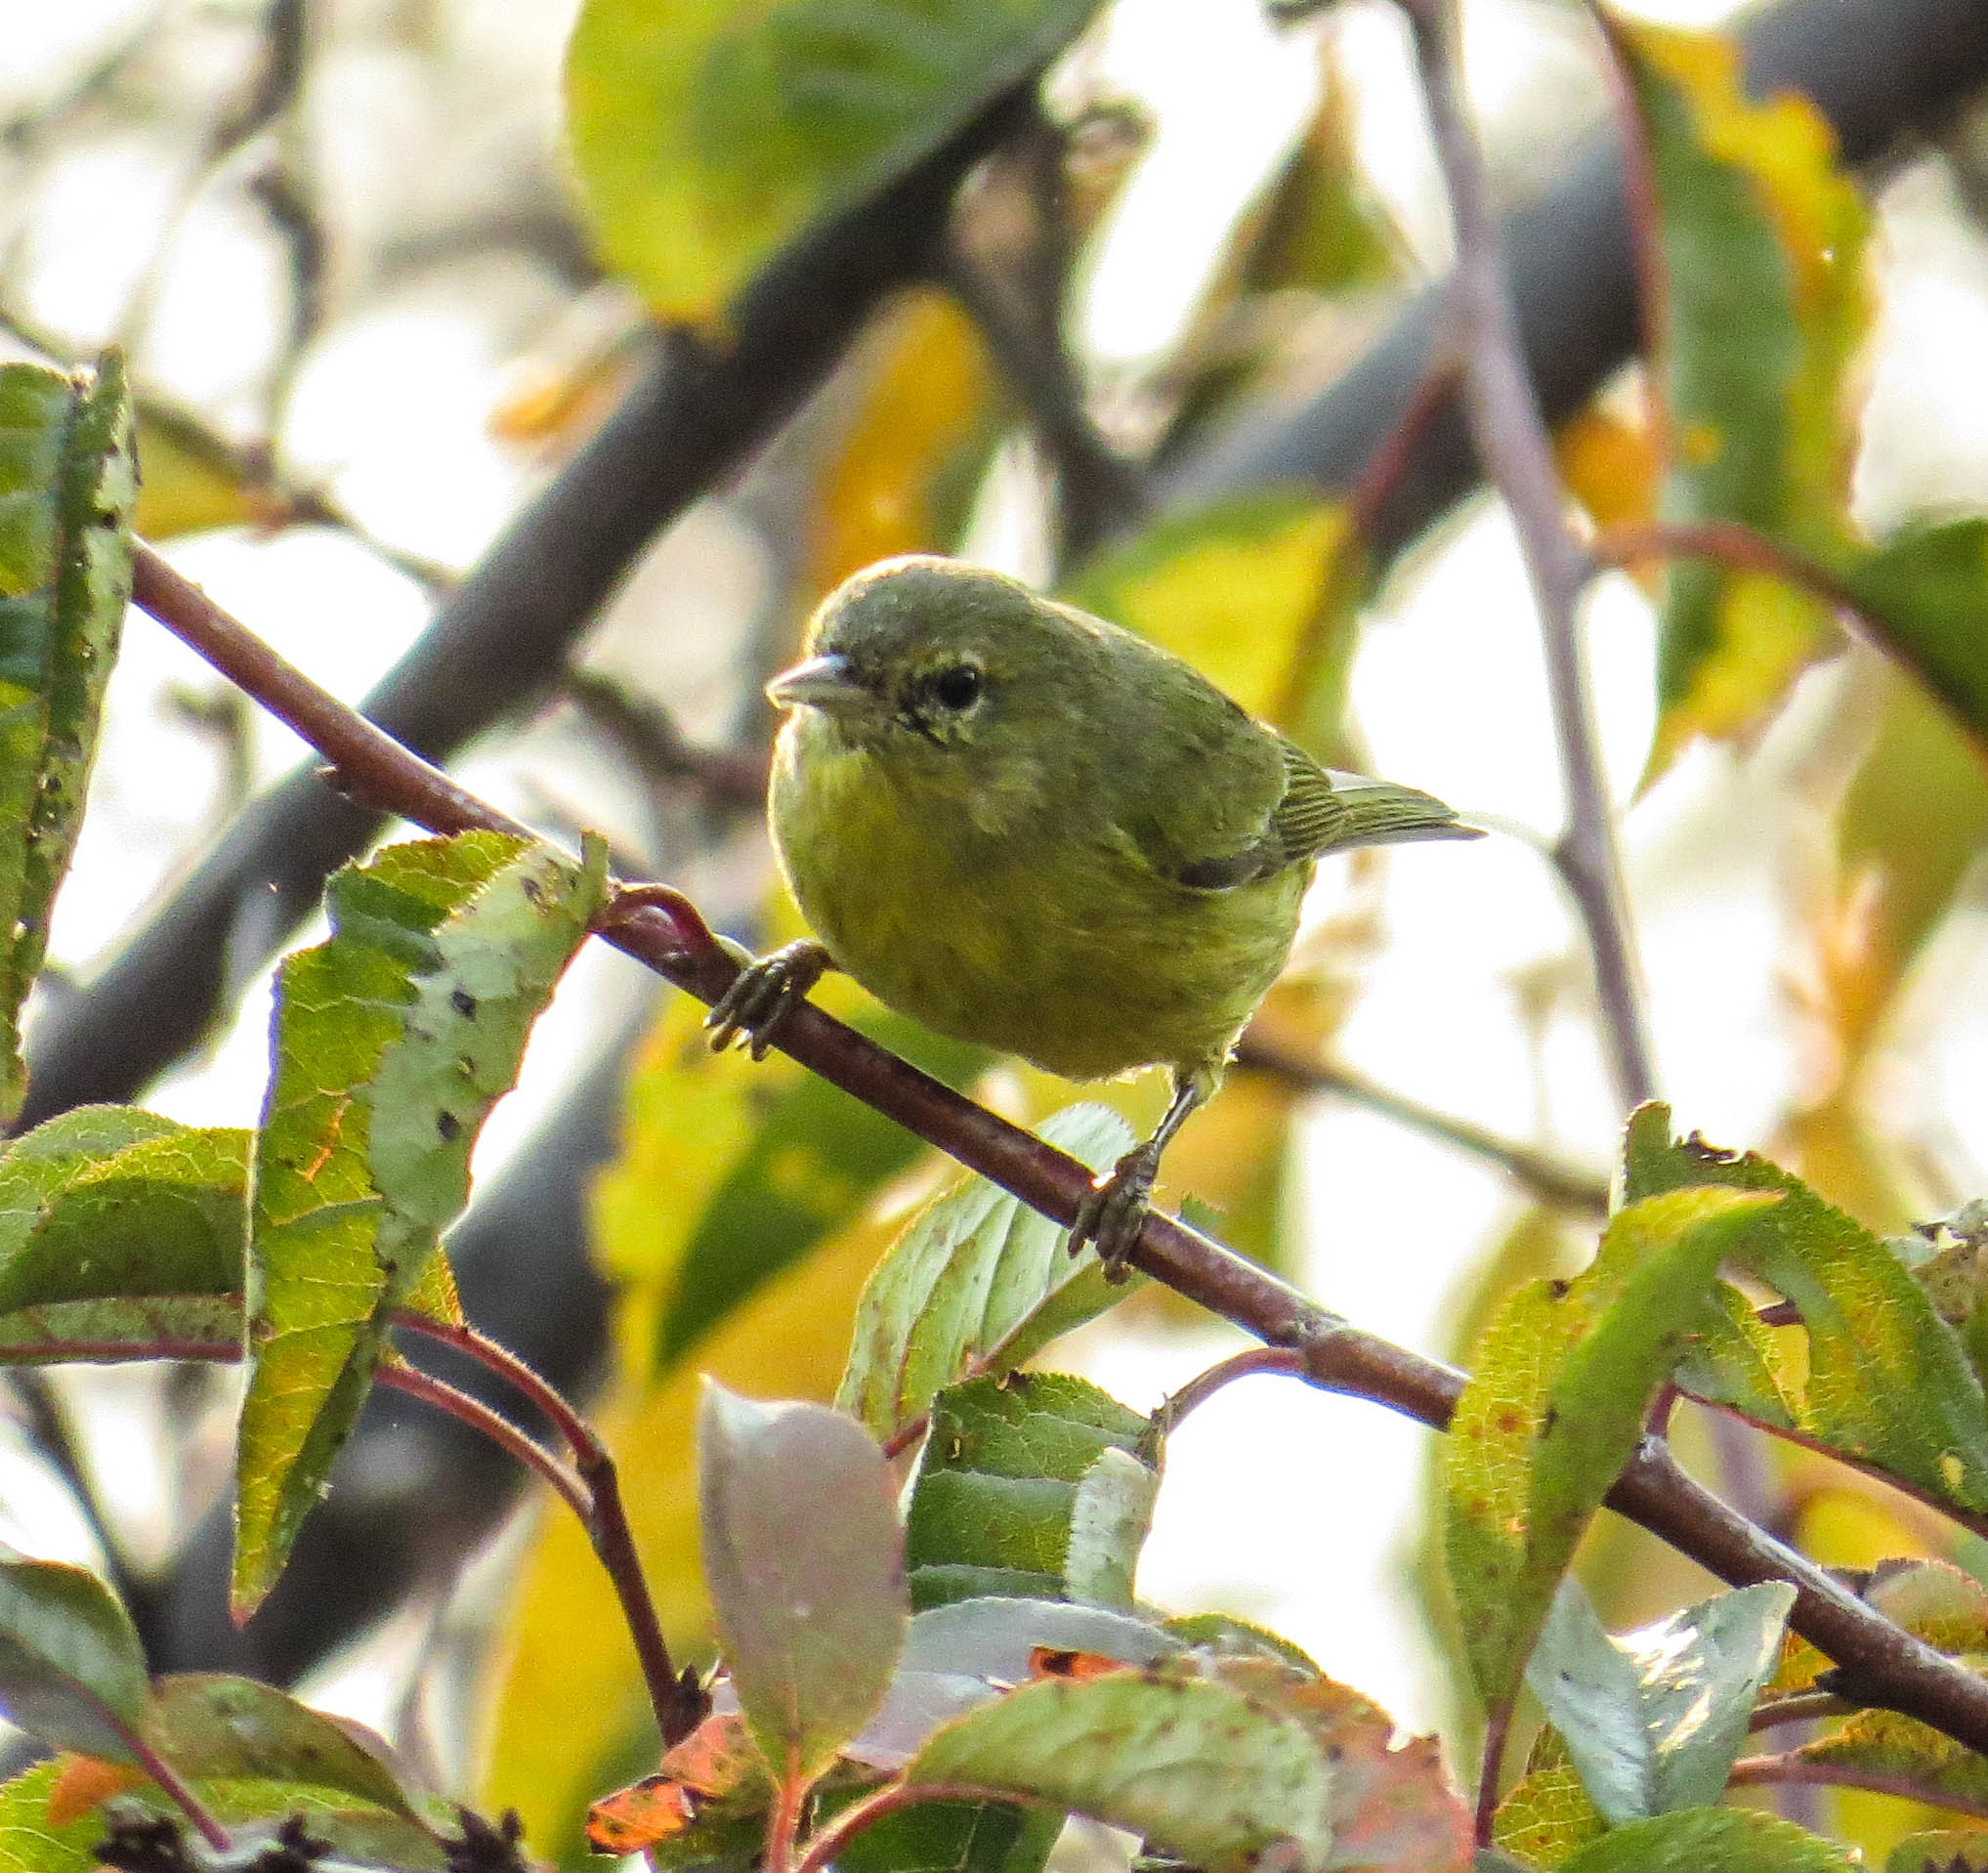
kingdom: Animalia
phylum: Chordata
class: Aves
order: Passeriformes
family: Parulidae
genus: Leiothlypis
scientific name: Leiothlypis celata
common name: Orange-crowned warbler
